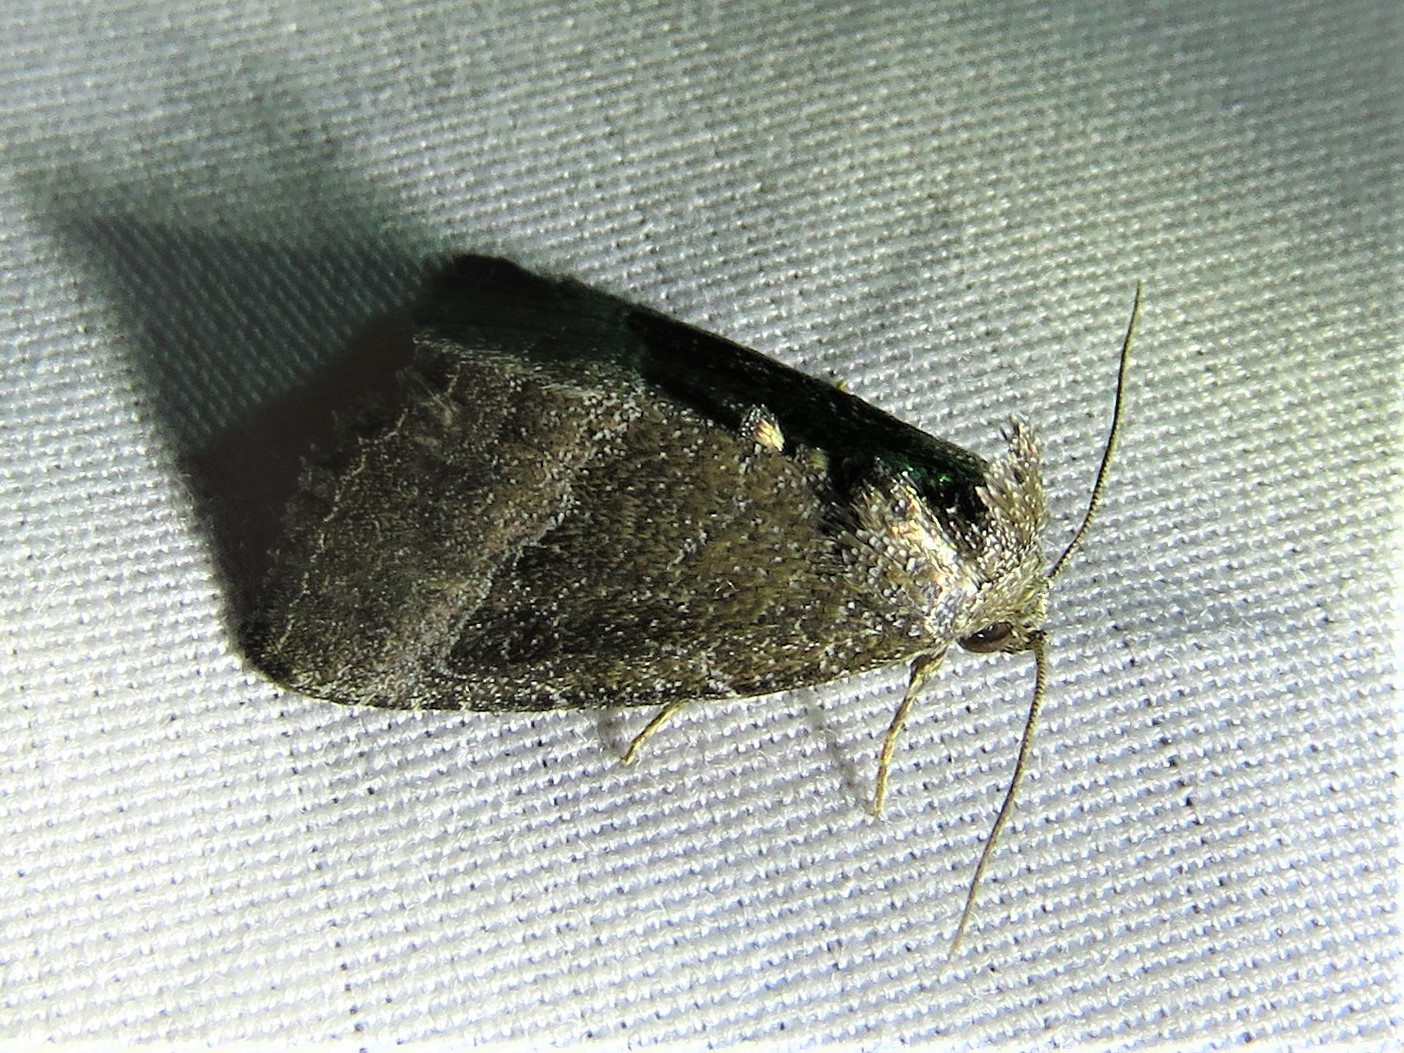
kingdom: Animalia
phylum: Arthropoda
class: Insecta
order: Lepidoptera
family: Noctuidae
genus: Ogdoconta
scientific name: Ogdoconta cinereola
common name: Common pinkband
